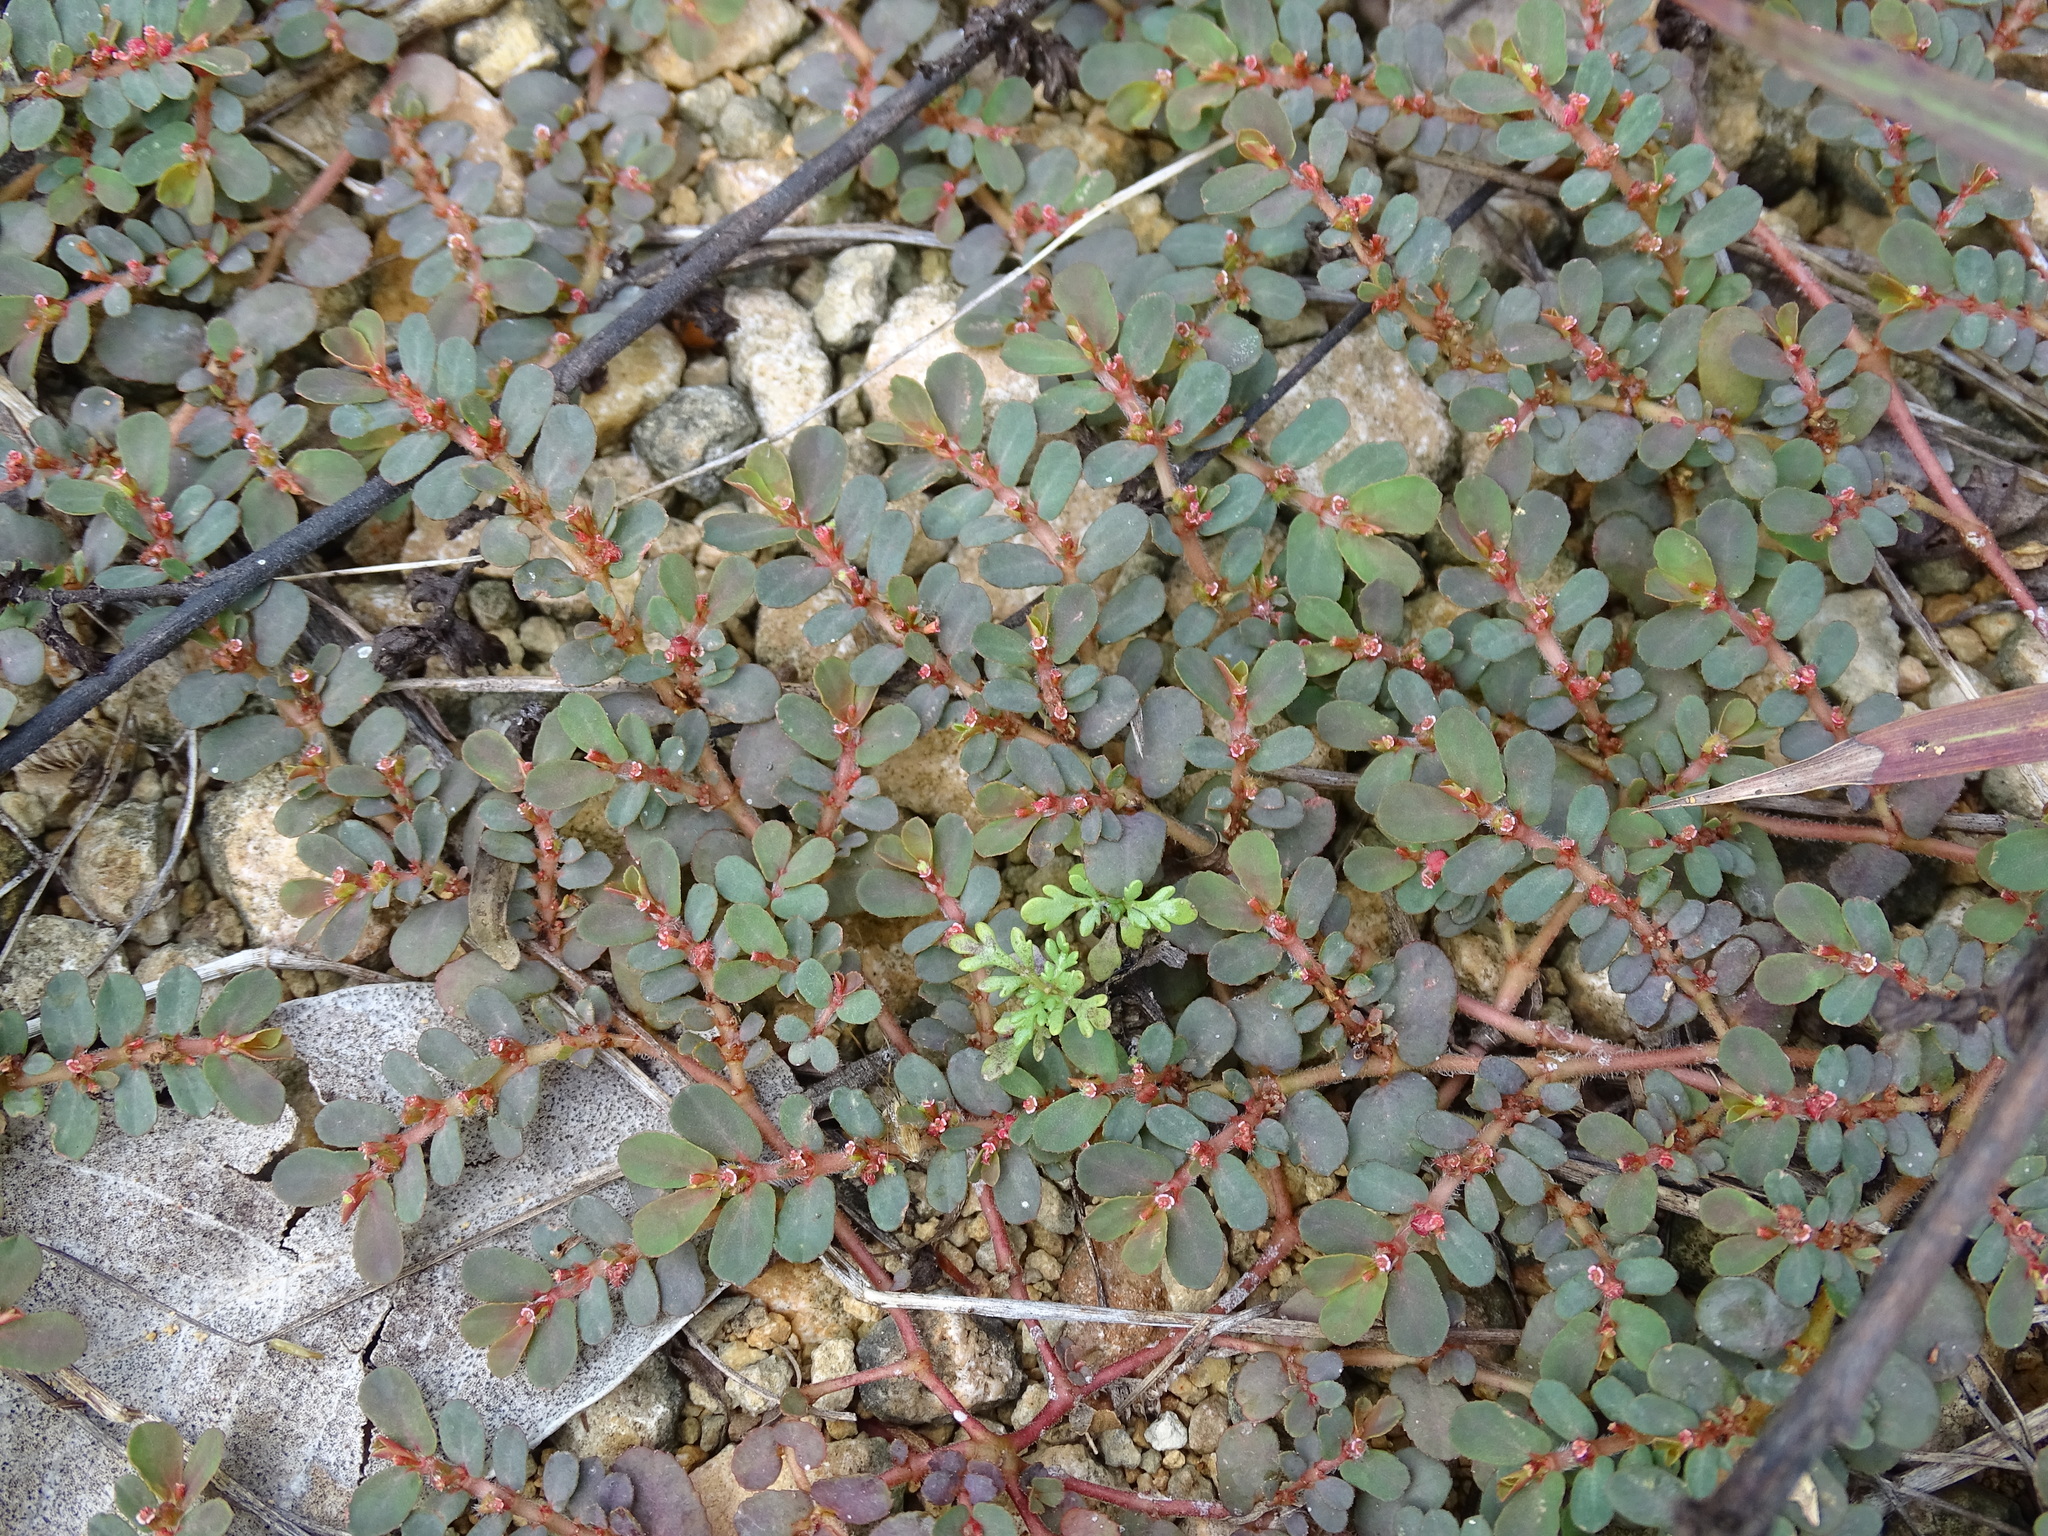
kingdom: Plantae
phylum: Tracheophyta
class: Magnoliopsida
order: Malpighiales
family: Euphorbiaceae
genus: Euphorbia
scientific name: Euphorbia mendezii
